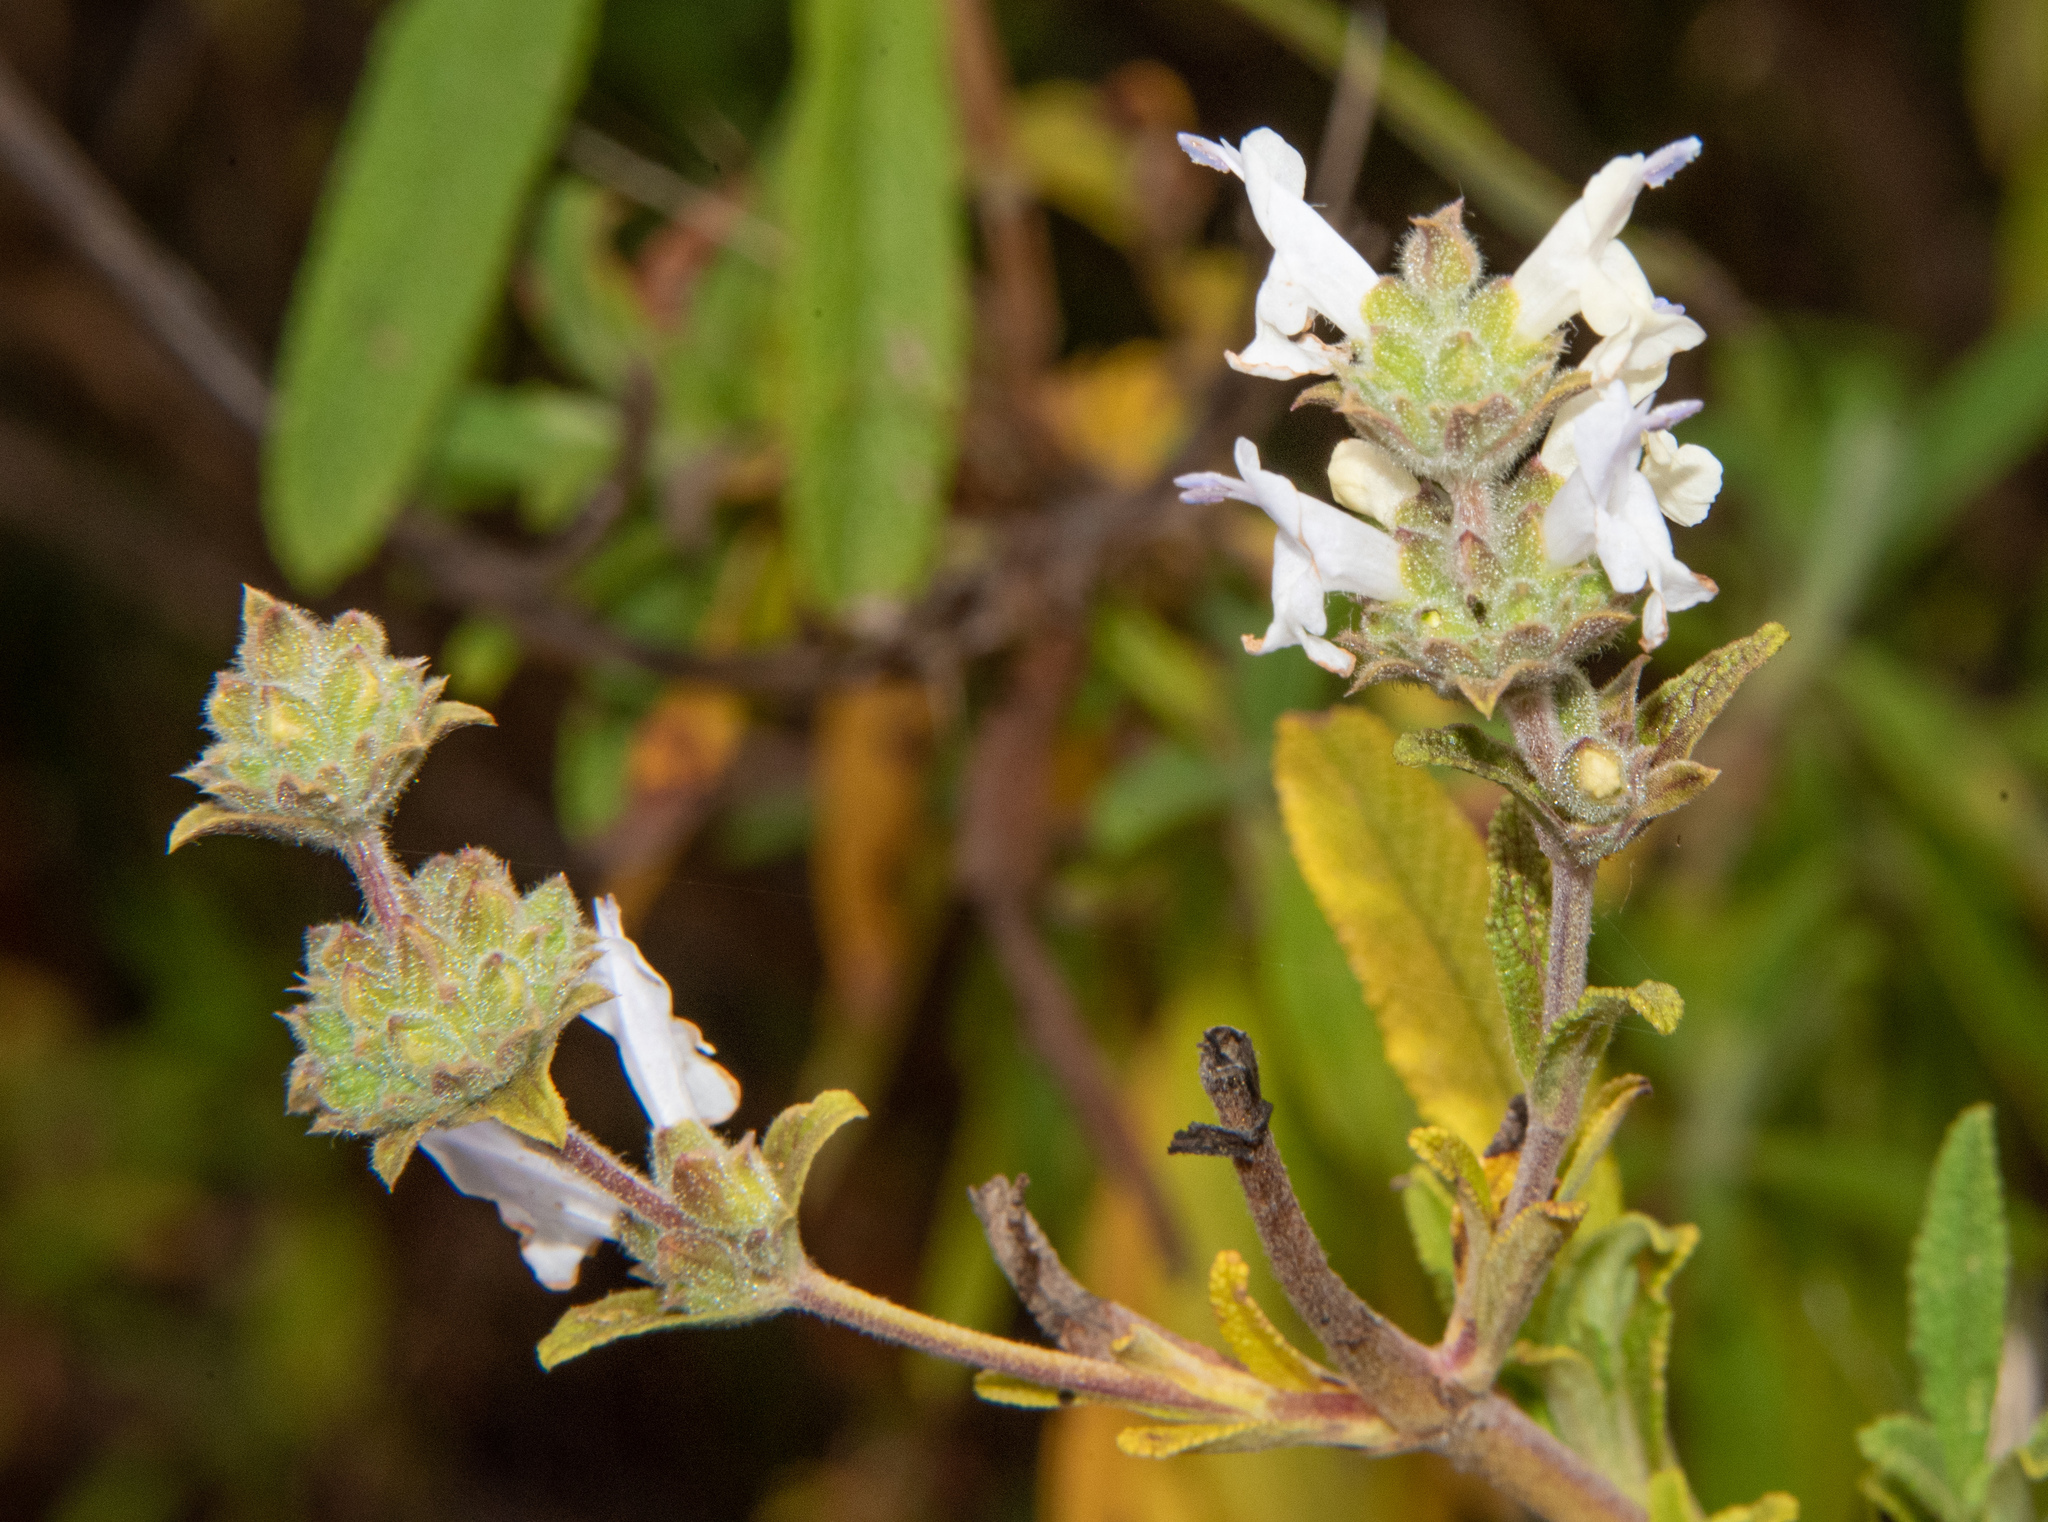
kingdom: Plantae
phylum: Tracheophyta
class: Magnoliopsida
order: Lamiales
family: Lamiaceae
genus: Salvia
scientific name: Salvia mellifera
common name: Black sage
